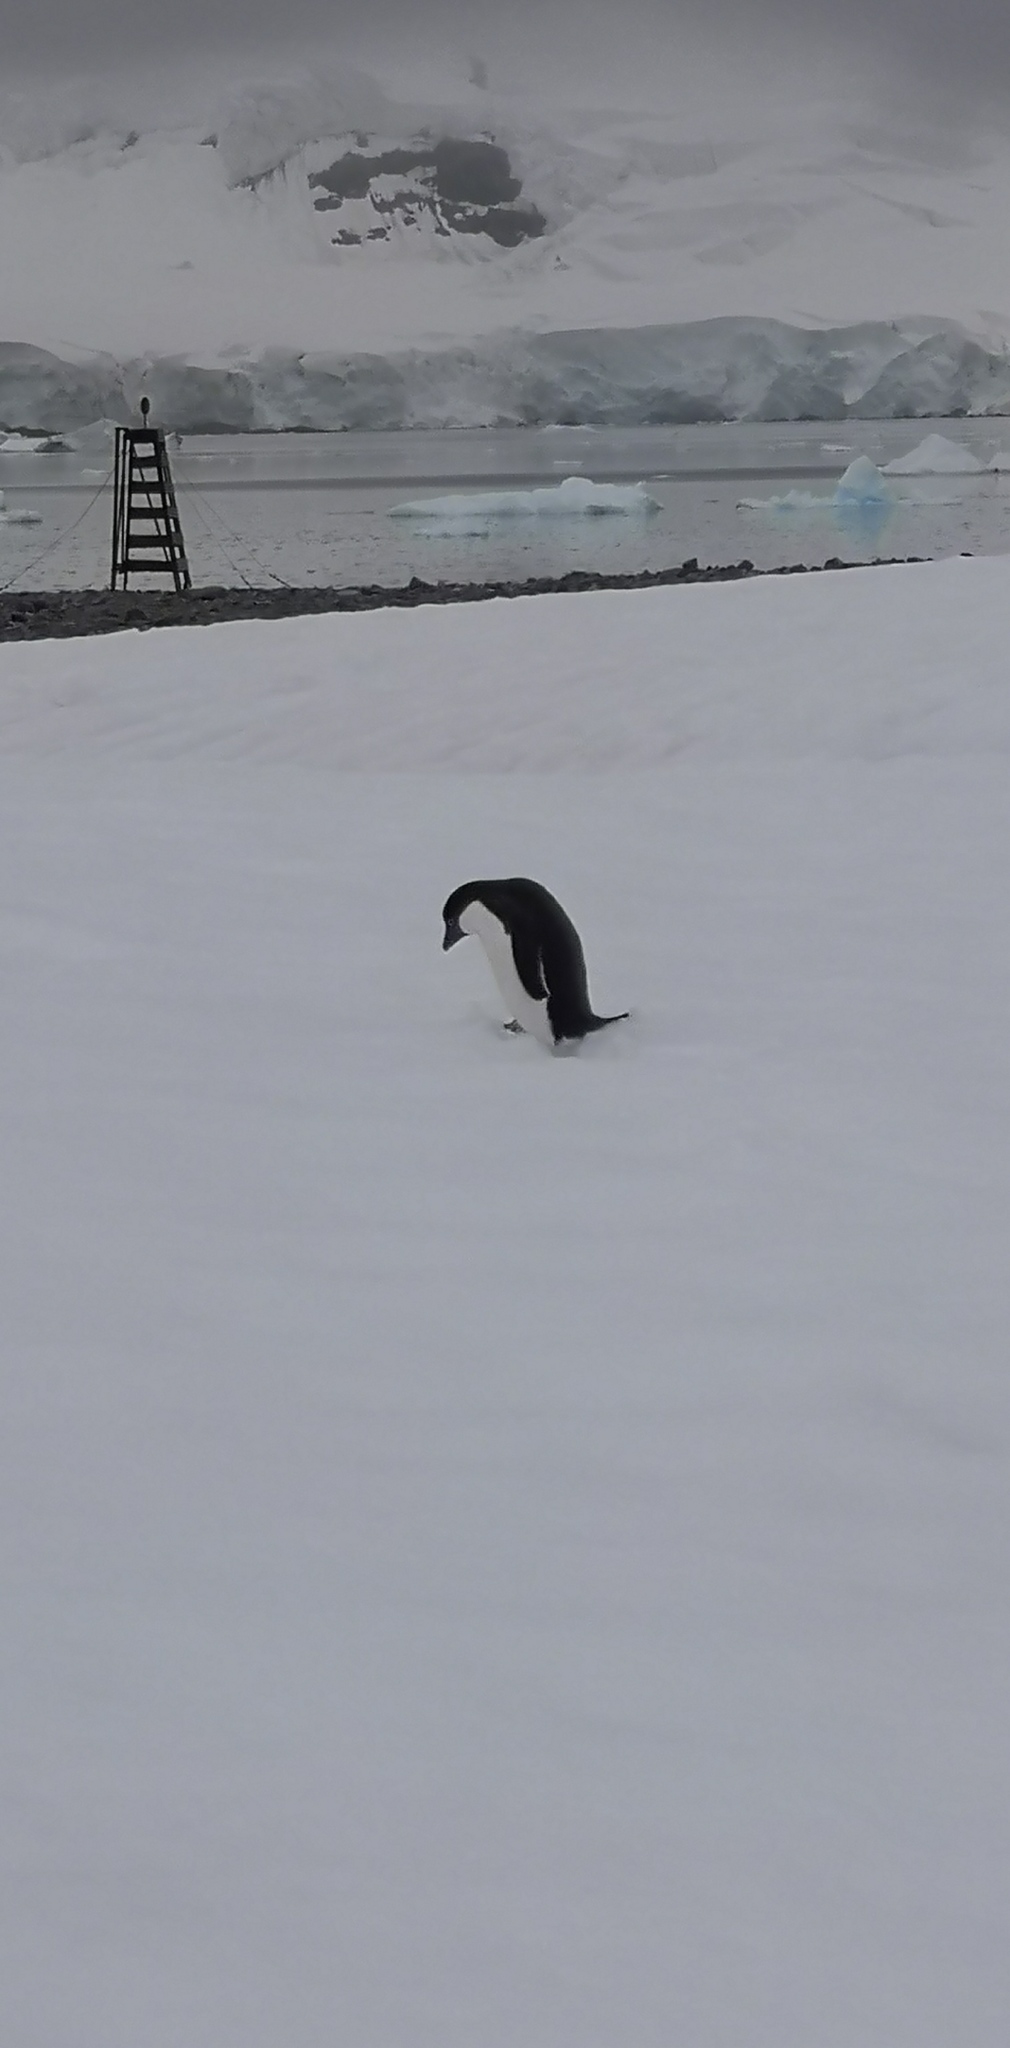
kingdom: Animalia
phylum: Chordata
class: Aves
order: Sphenisciformes
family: Spheniscidae
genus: Pygoscelis
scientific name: Pygoscelis adeliae
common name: Adelie penguin
